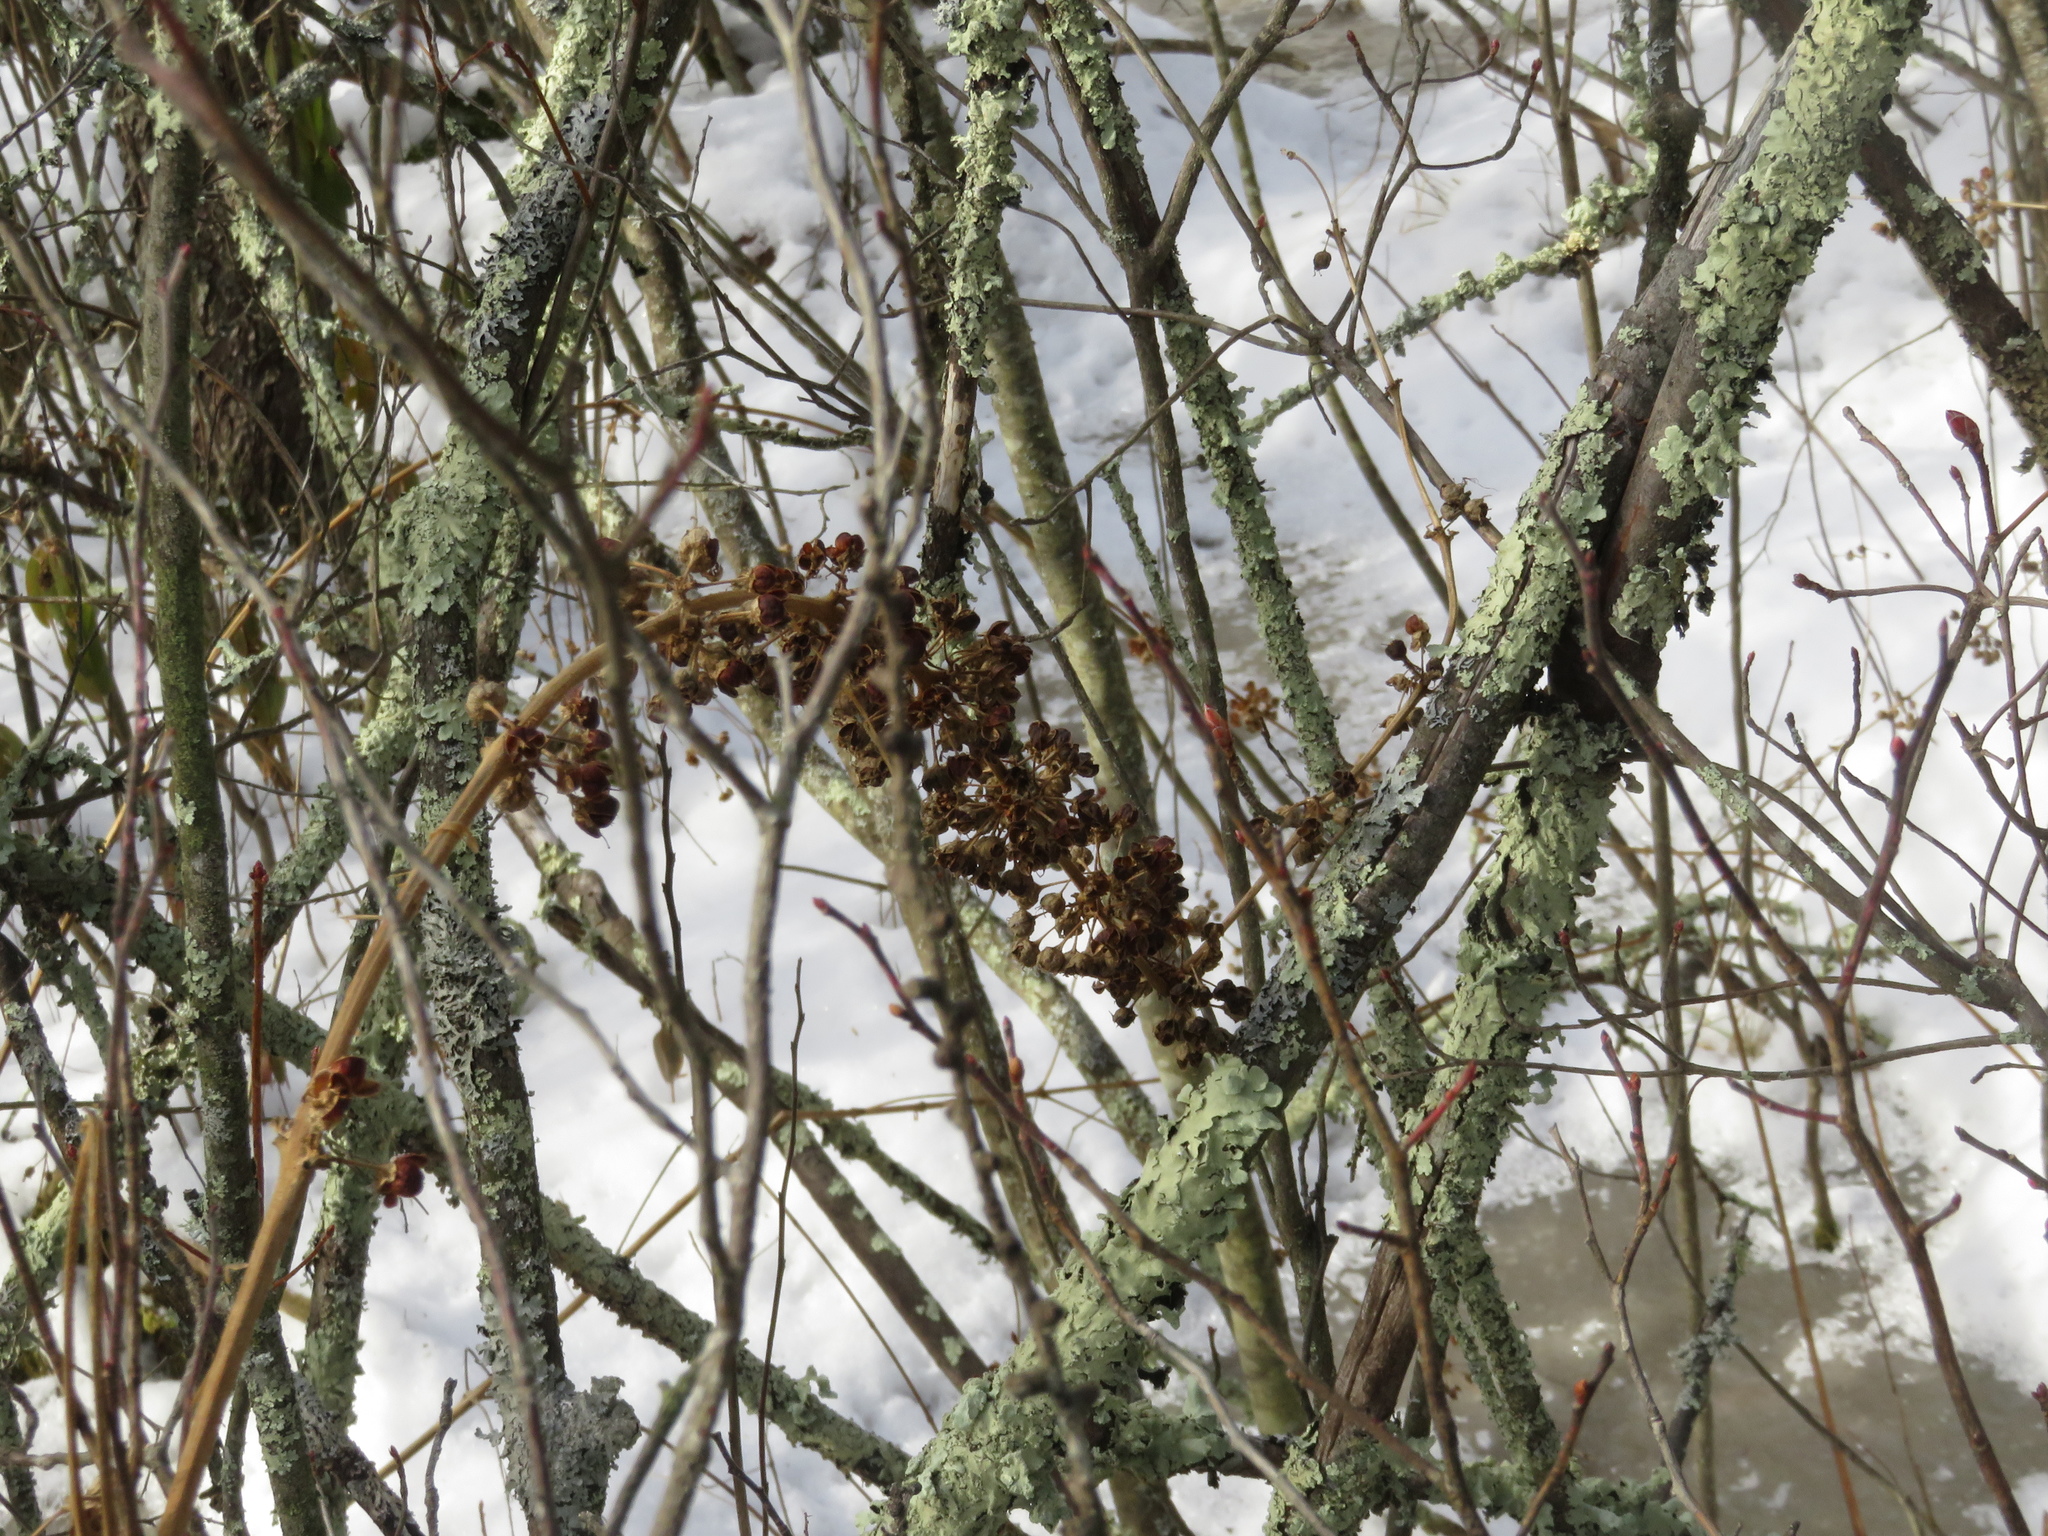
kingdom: Plantae
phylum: Tracheophyta
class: Magnoliopsida
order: Myrtales
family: Lythraceae
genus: Decodon
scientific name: Decodon verticillatus
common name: Hairy swamp loosestrife
